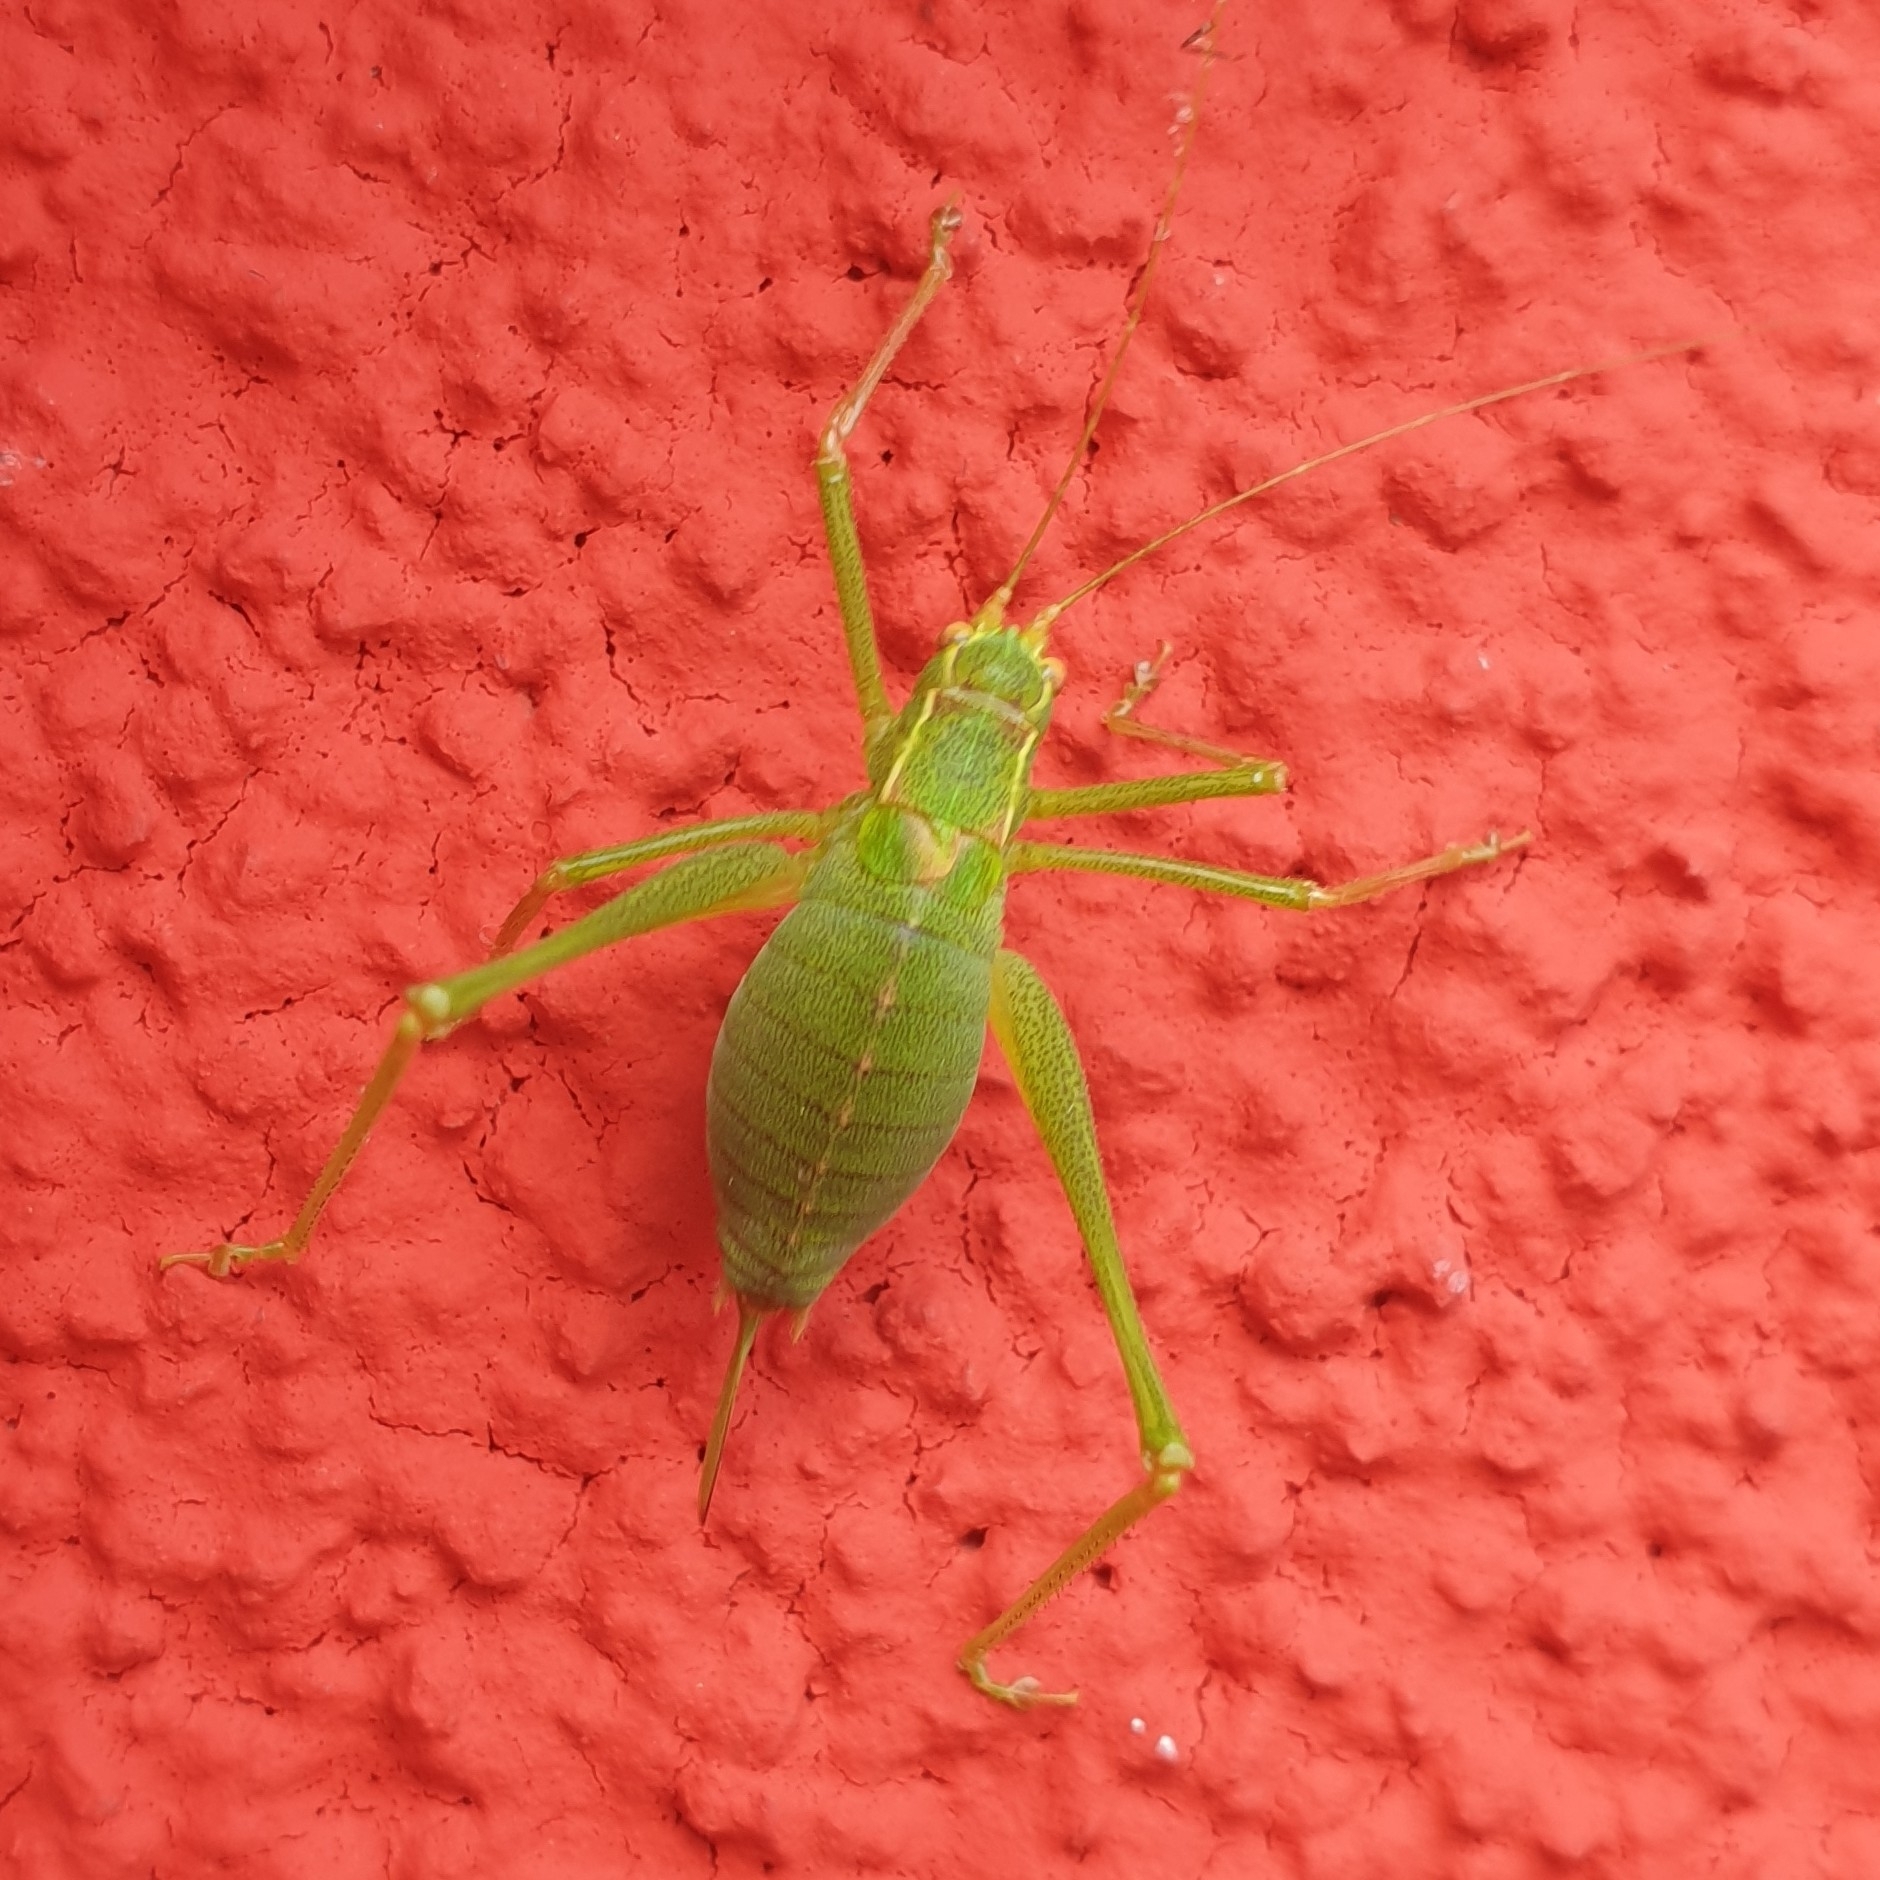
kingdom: Animalia
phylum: Arthropoda
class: Insecta
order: Orthoptera
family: Tettigoniidae
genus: Leptophyes
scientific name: Leptophyes punctatissima
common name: Speckled bush-cricket
